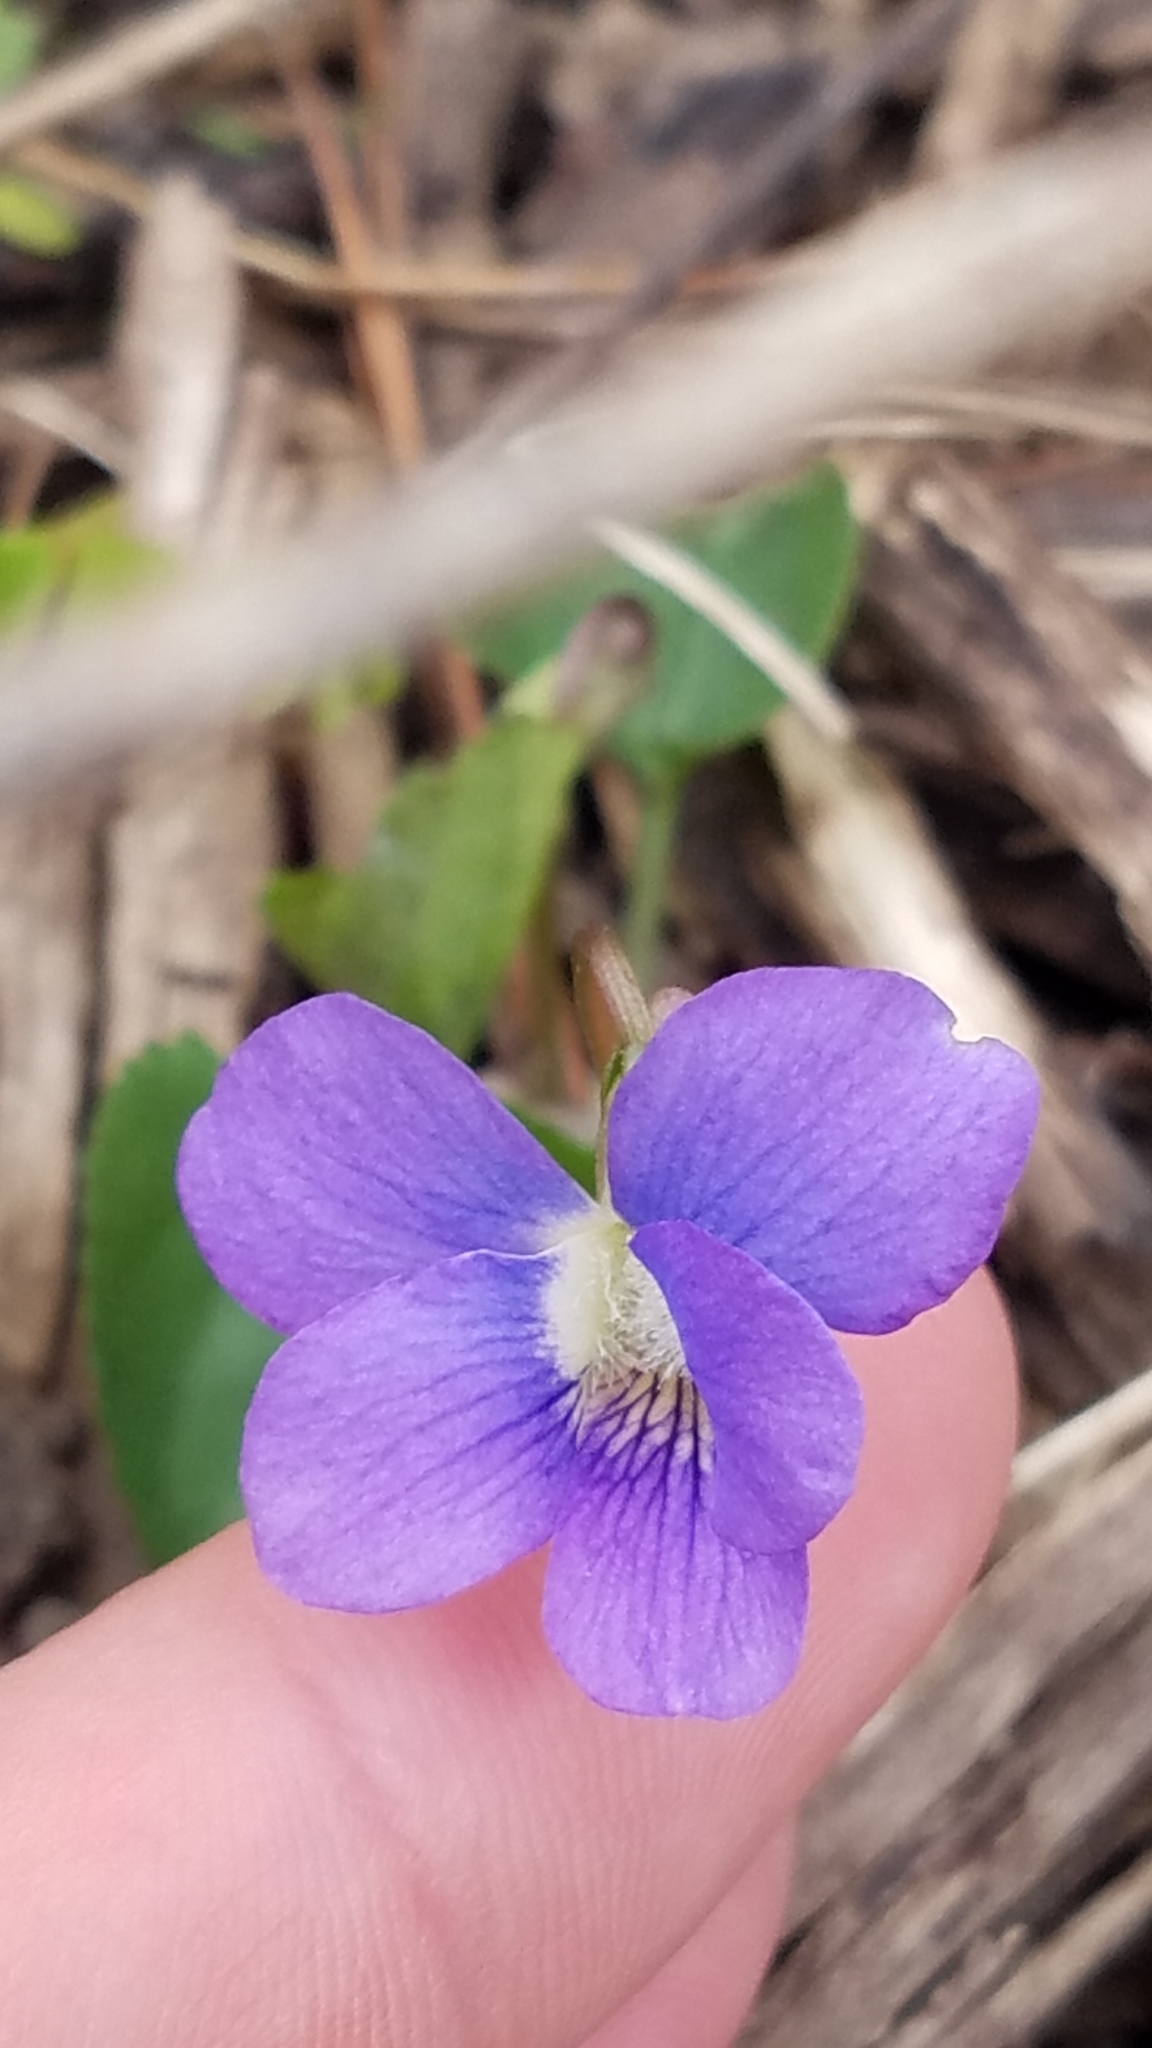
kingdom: Plantae
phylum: Tracheophyta
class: Magnoliopsida
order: Malpighiales
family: Violaceae
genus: Viola
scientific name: Viola sororia
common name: Dooryard violet
